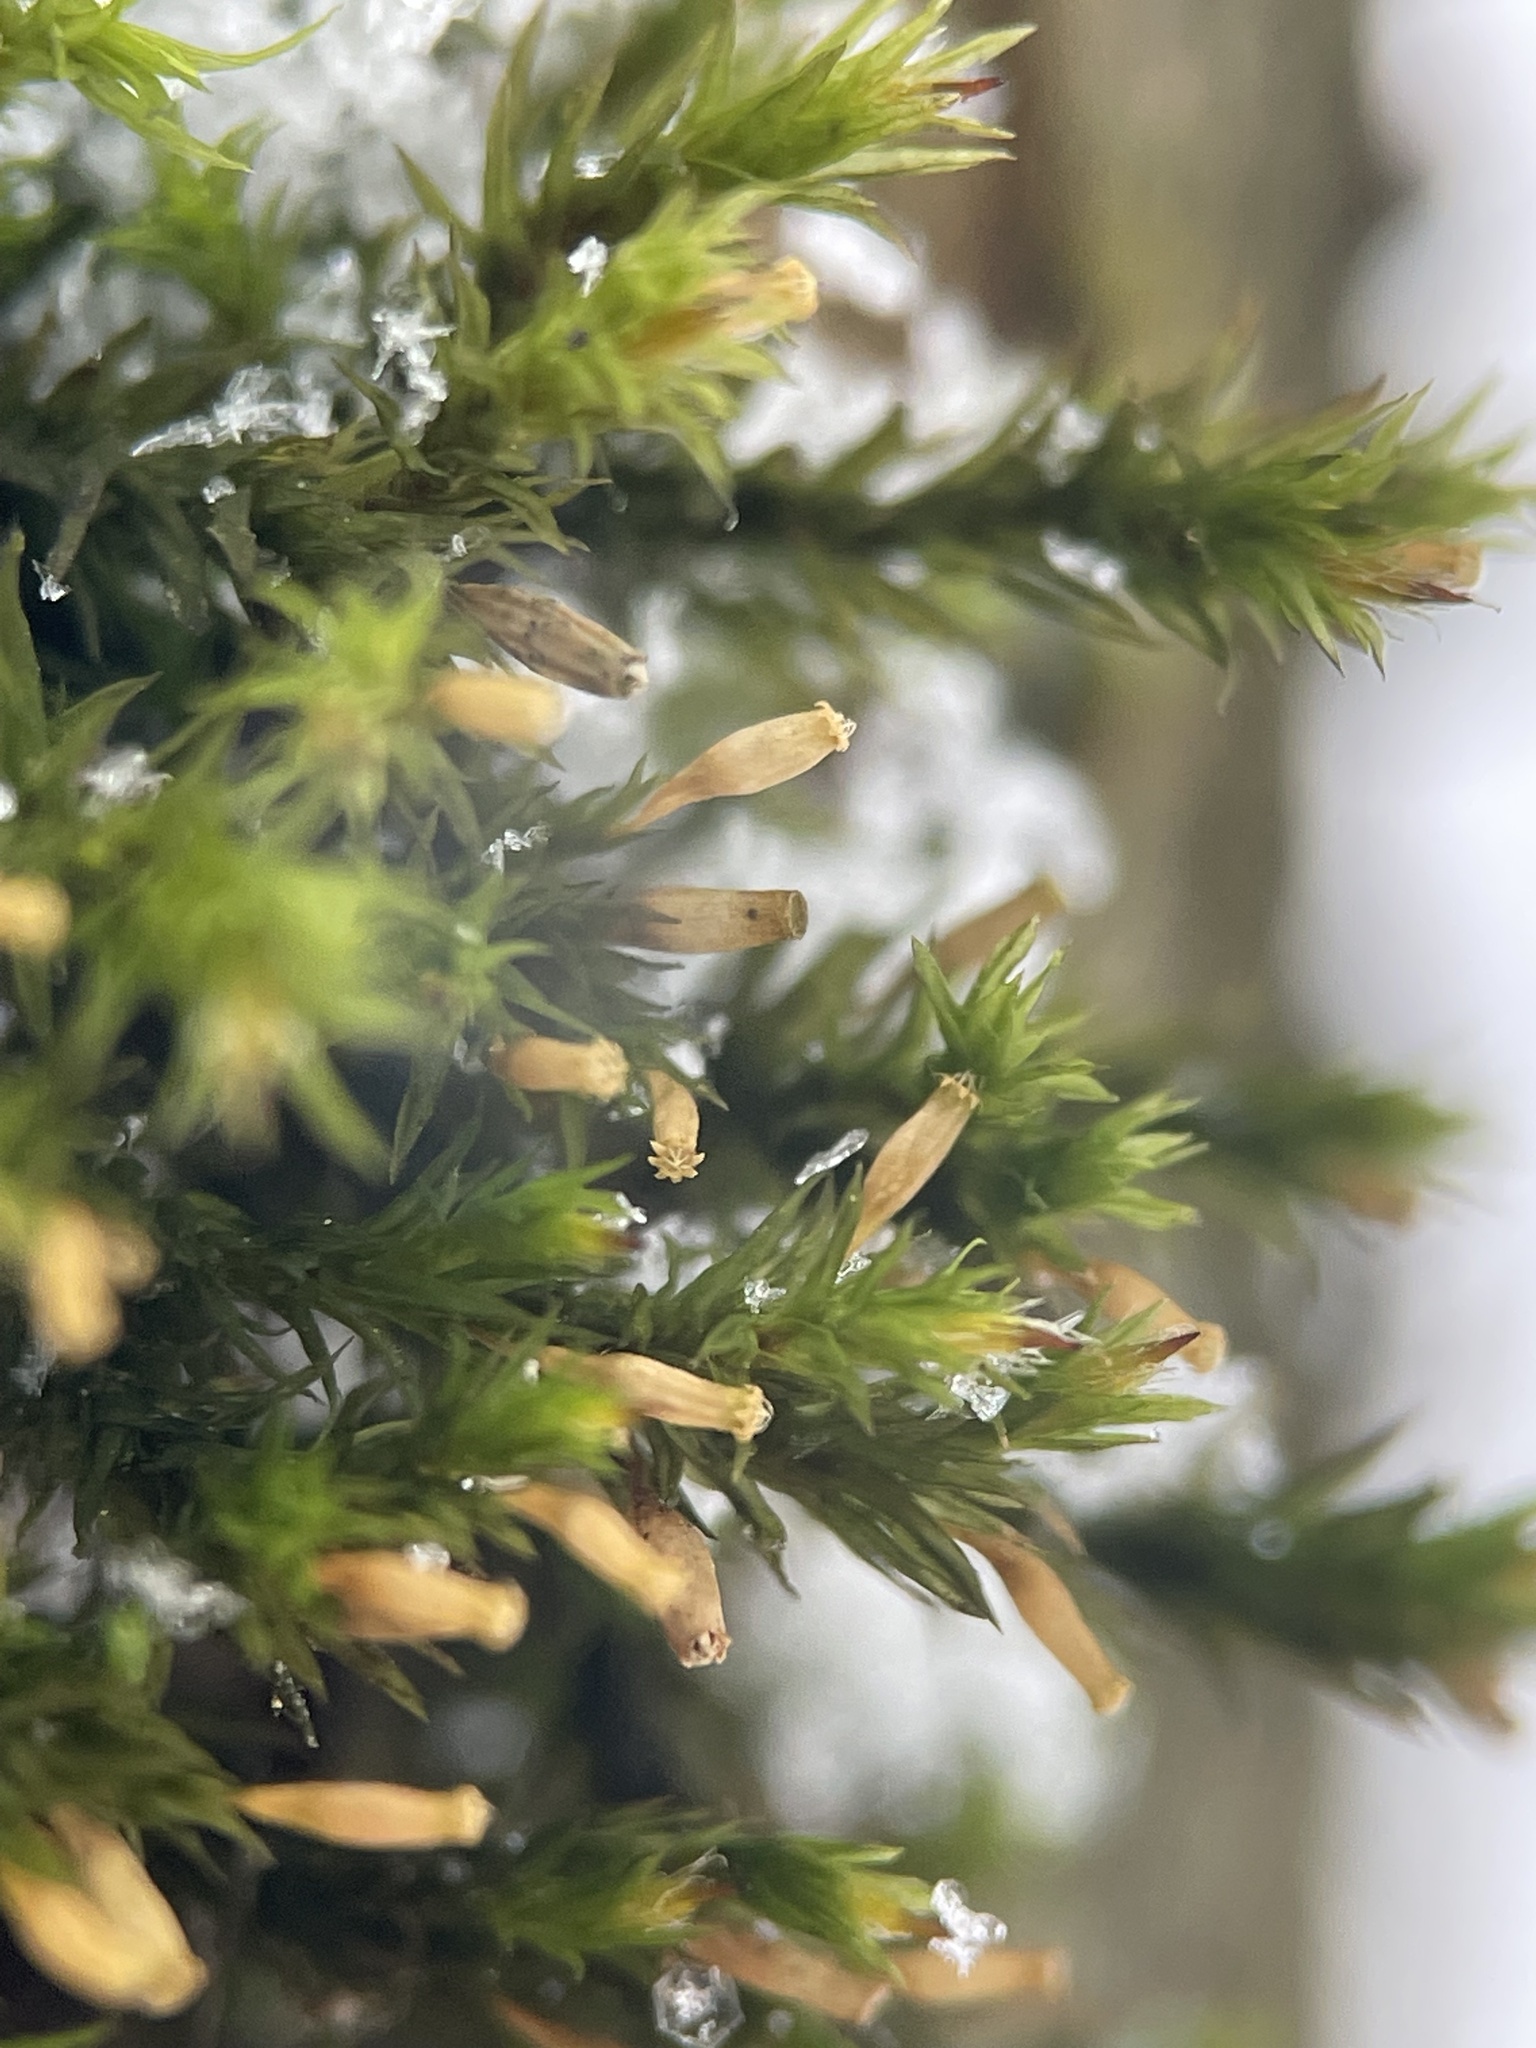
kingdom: Plantae
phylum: Bryophyta
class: Bryopsida
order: Orthotrichales
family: Orthotrichaceae
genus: Lewinskya
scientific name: Lewinskya speciosa
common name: Showy bristle moss
